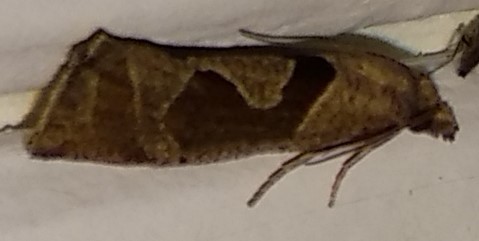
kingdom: Animalia
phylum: Arthropoda
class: Insecta
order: Lepidoptera
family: Tortricidae
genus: Pelochrista
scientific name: Pelochrista similiana
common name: Similar eucosma
